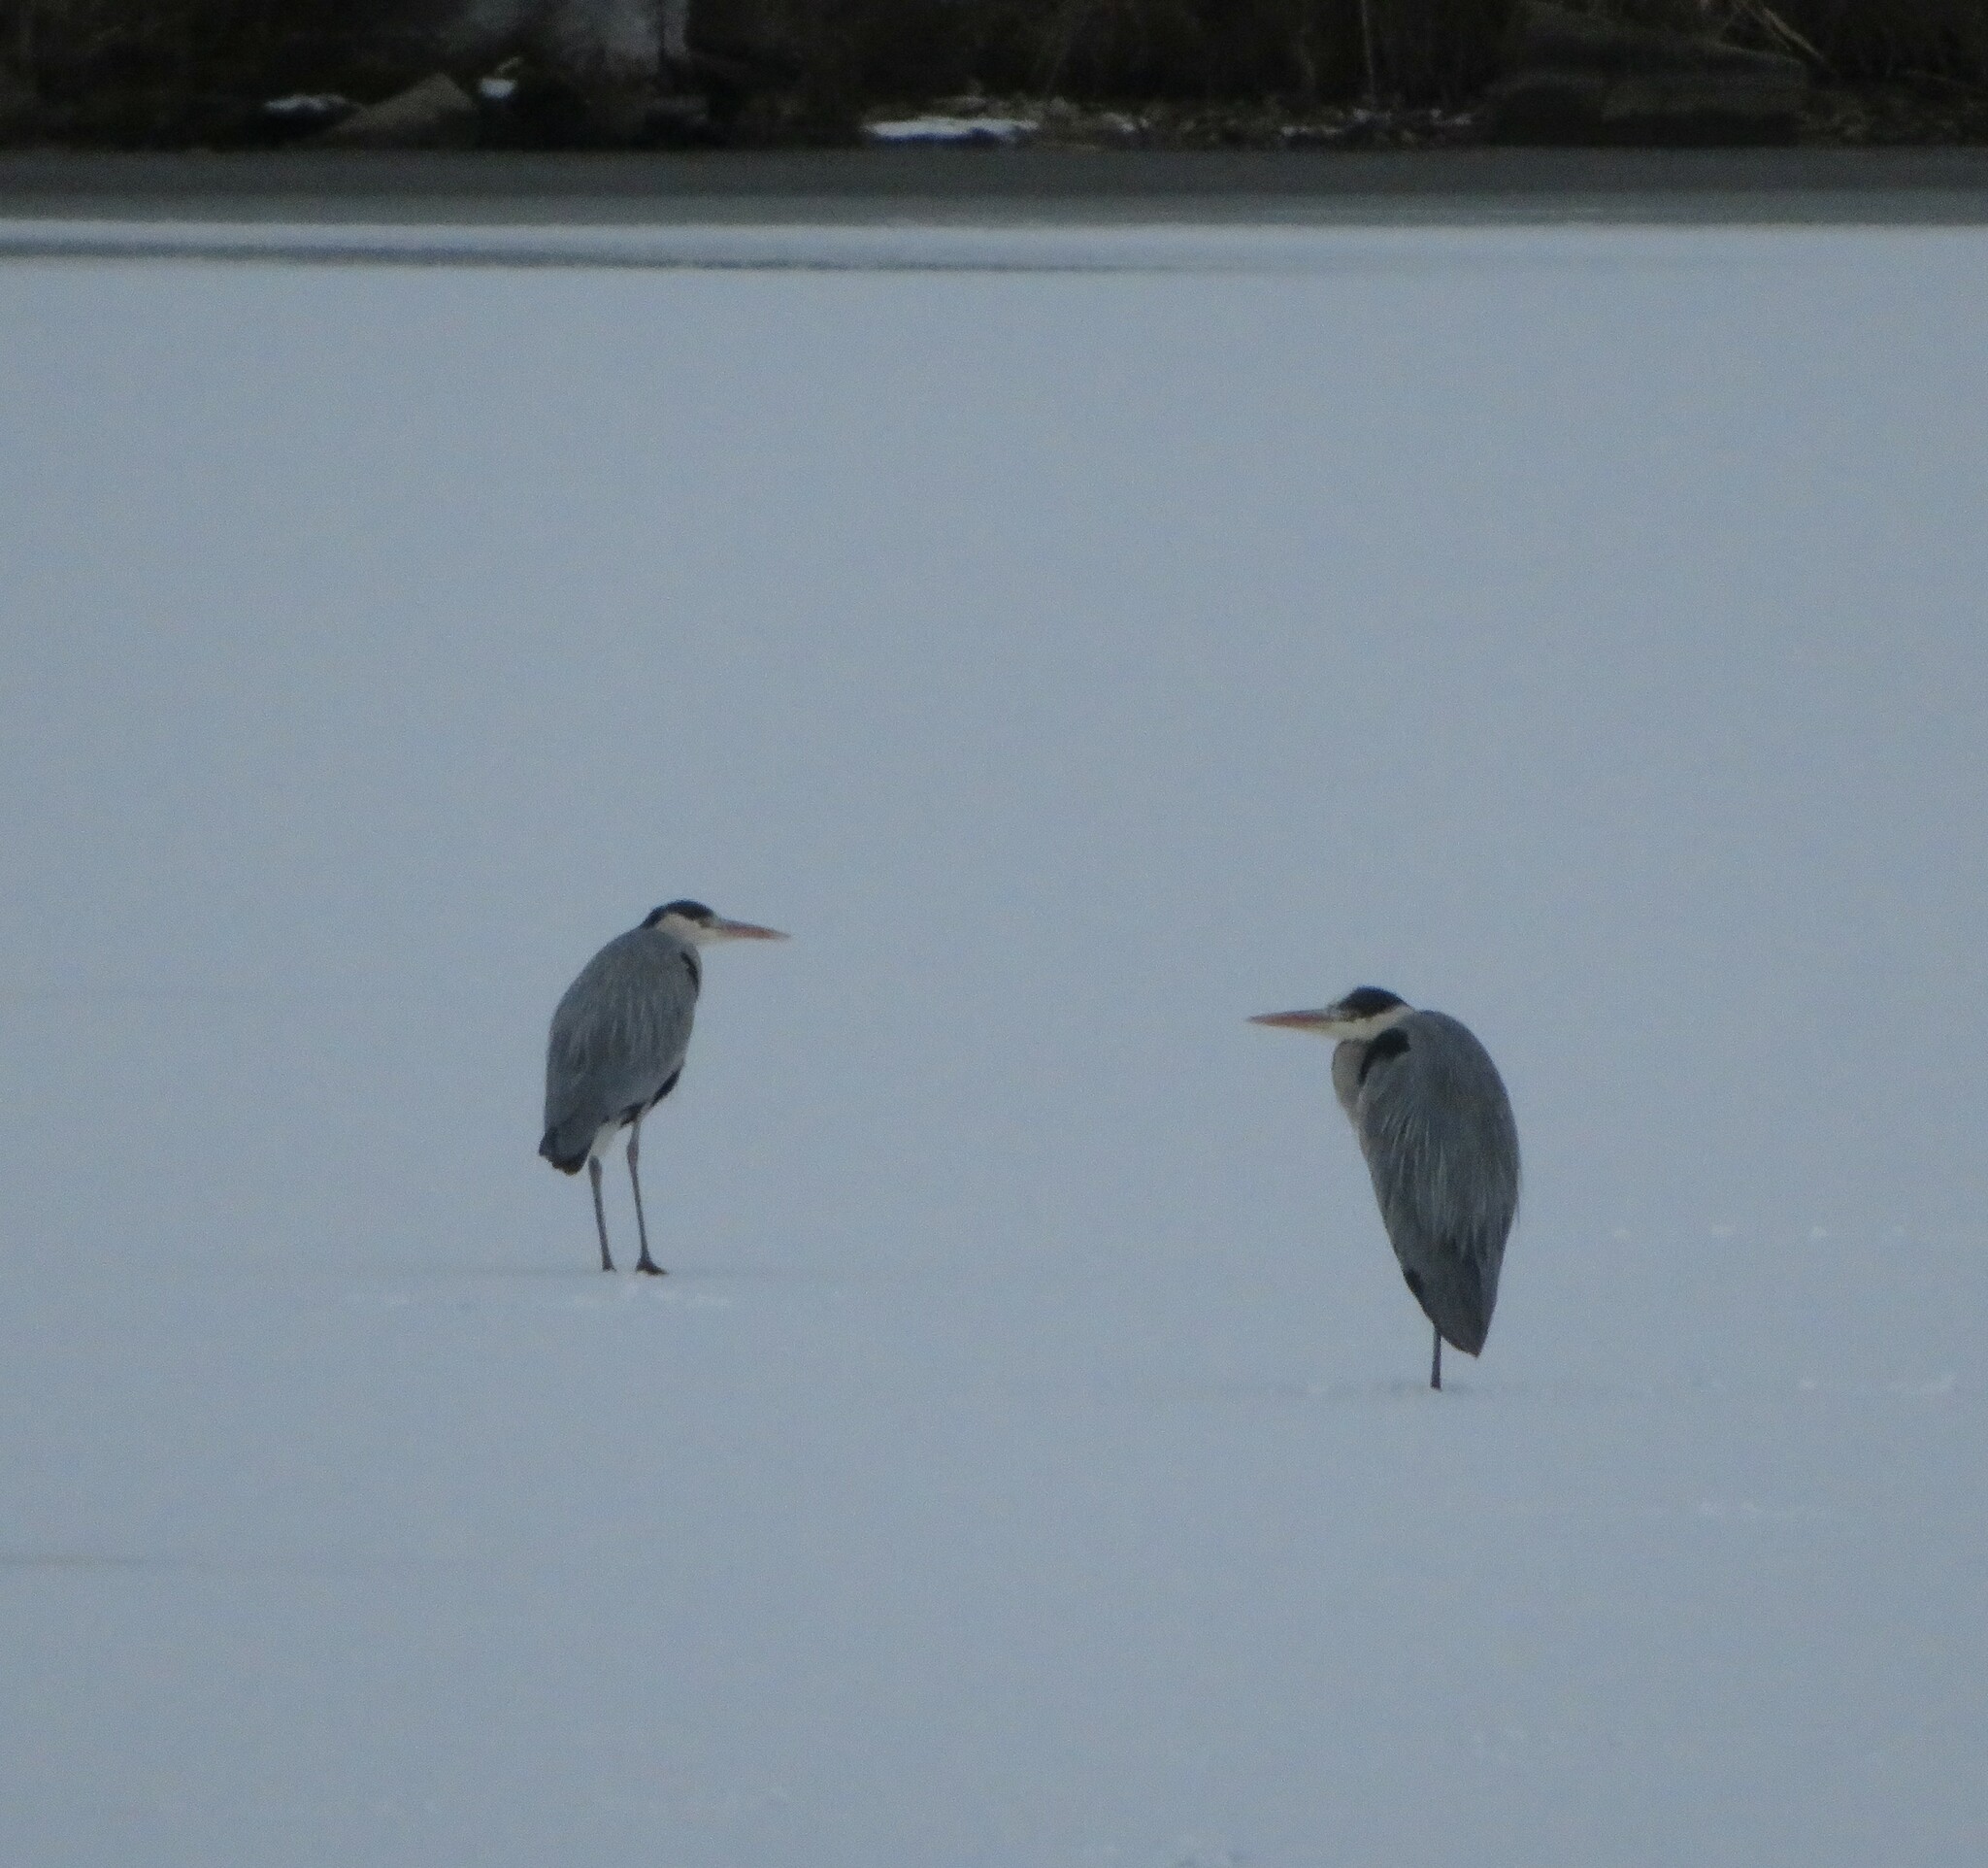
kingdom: Animalia
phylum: Chordata
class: Aves
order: Pelecaniformes
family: Ardeidae
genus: Ardea
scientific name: Ardea cinerea
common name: Grey heron
